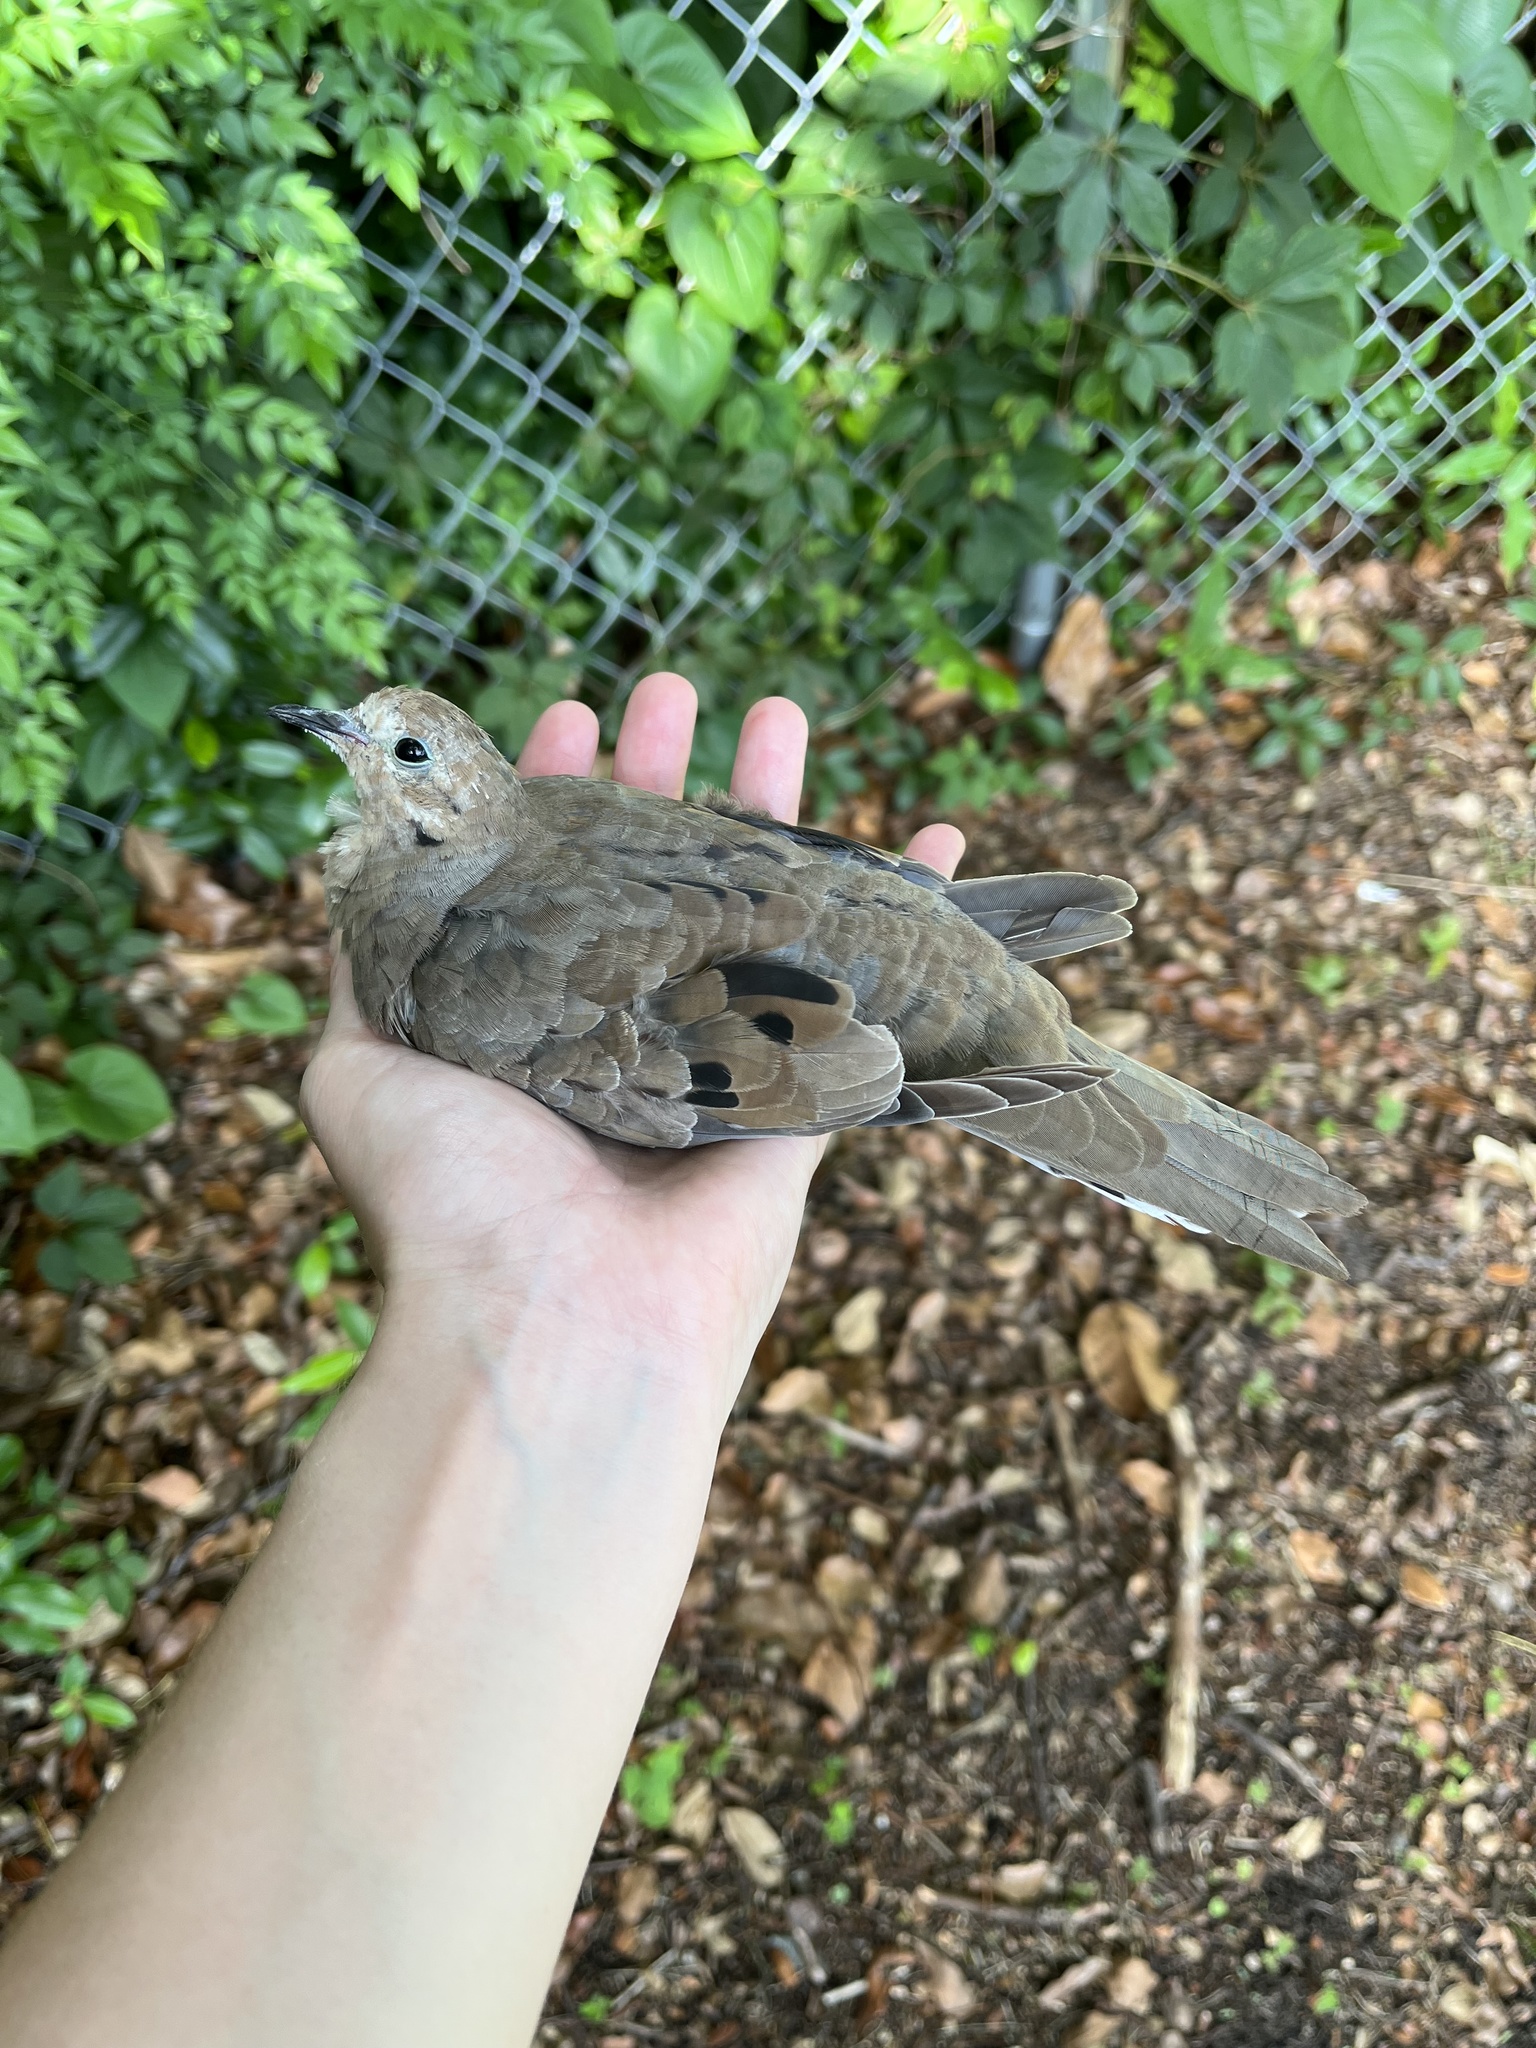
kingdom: Animalia
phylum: Chordata
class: Aves
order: Columbiformes
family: Columbidae
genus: Zenaida
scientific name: Zenaida macroura
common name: Mourning dove
